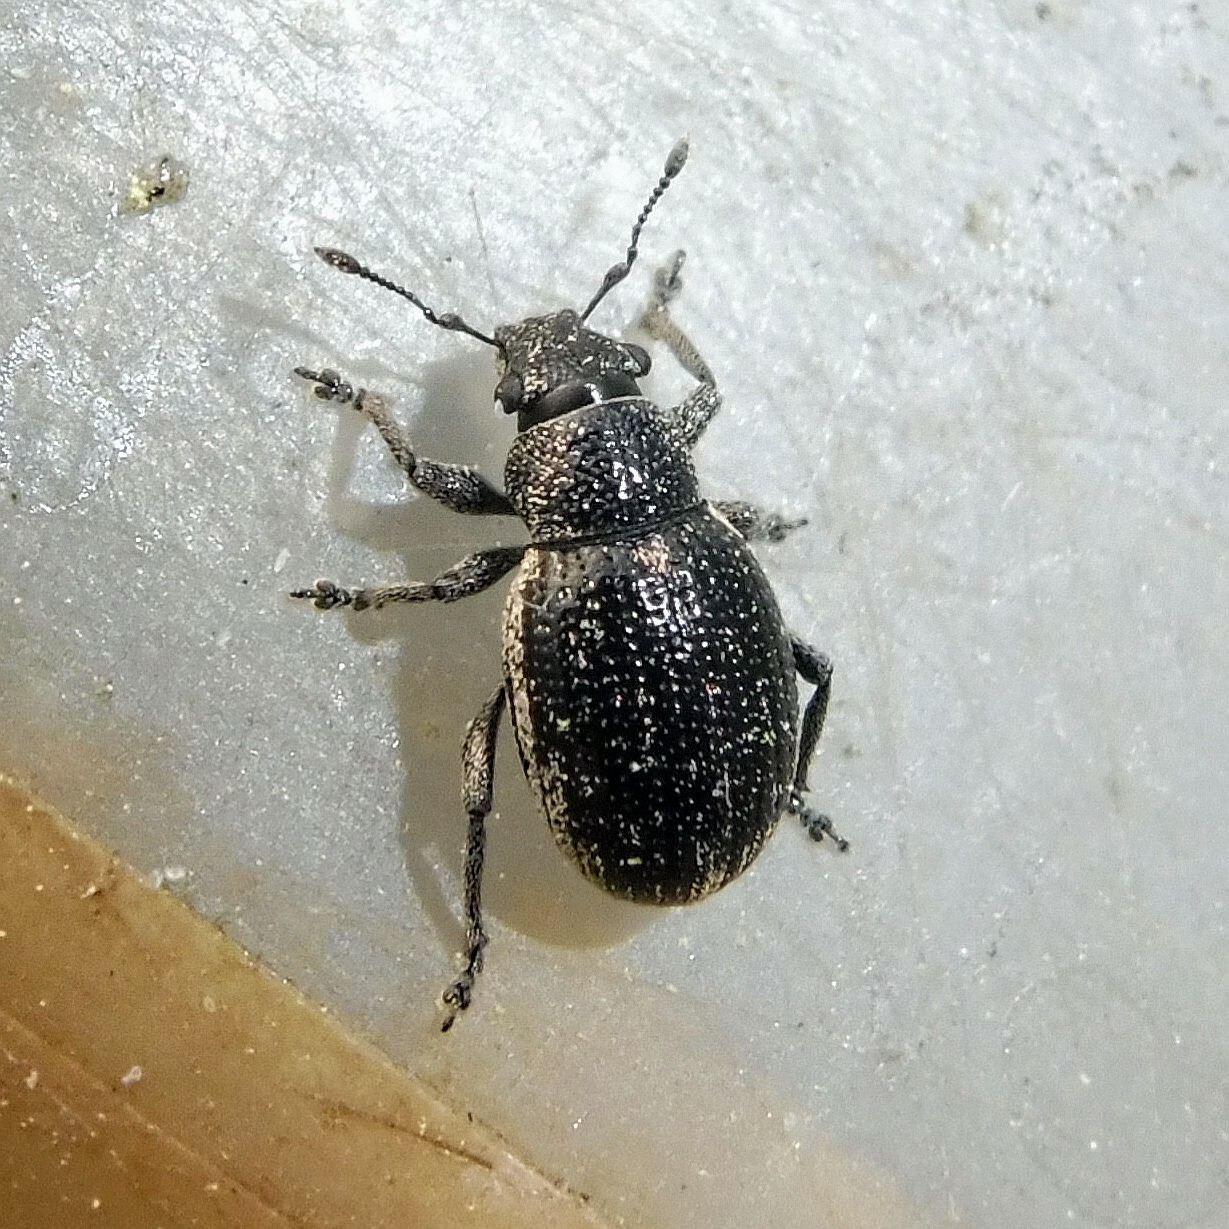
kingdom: Animalia
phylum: Arthropoda
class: Insecta
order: Coleoptera
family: Curculionidae
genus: Strophosoma
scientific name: Strophosoma sus
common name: Heather weevil
